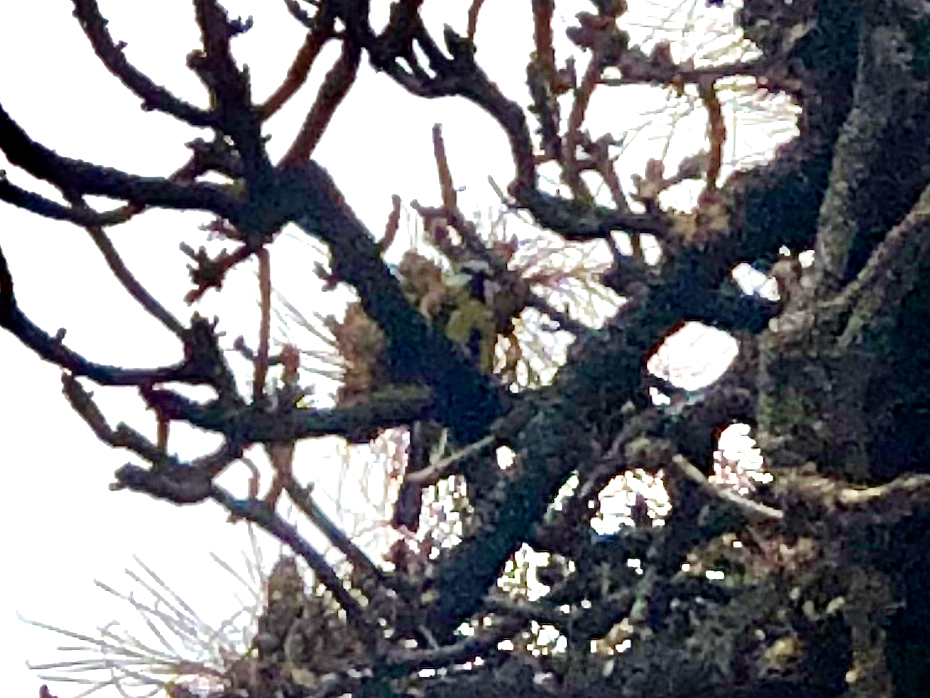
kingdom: Animalia
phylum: Chordata
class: Aves
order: Passeriformes
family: Paridae
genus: Cyanistes
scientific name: Cyanistes teneriffae
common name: African blue tit
